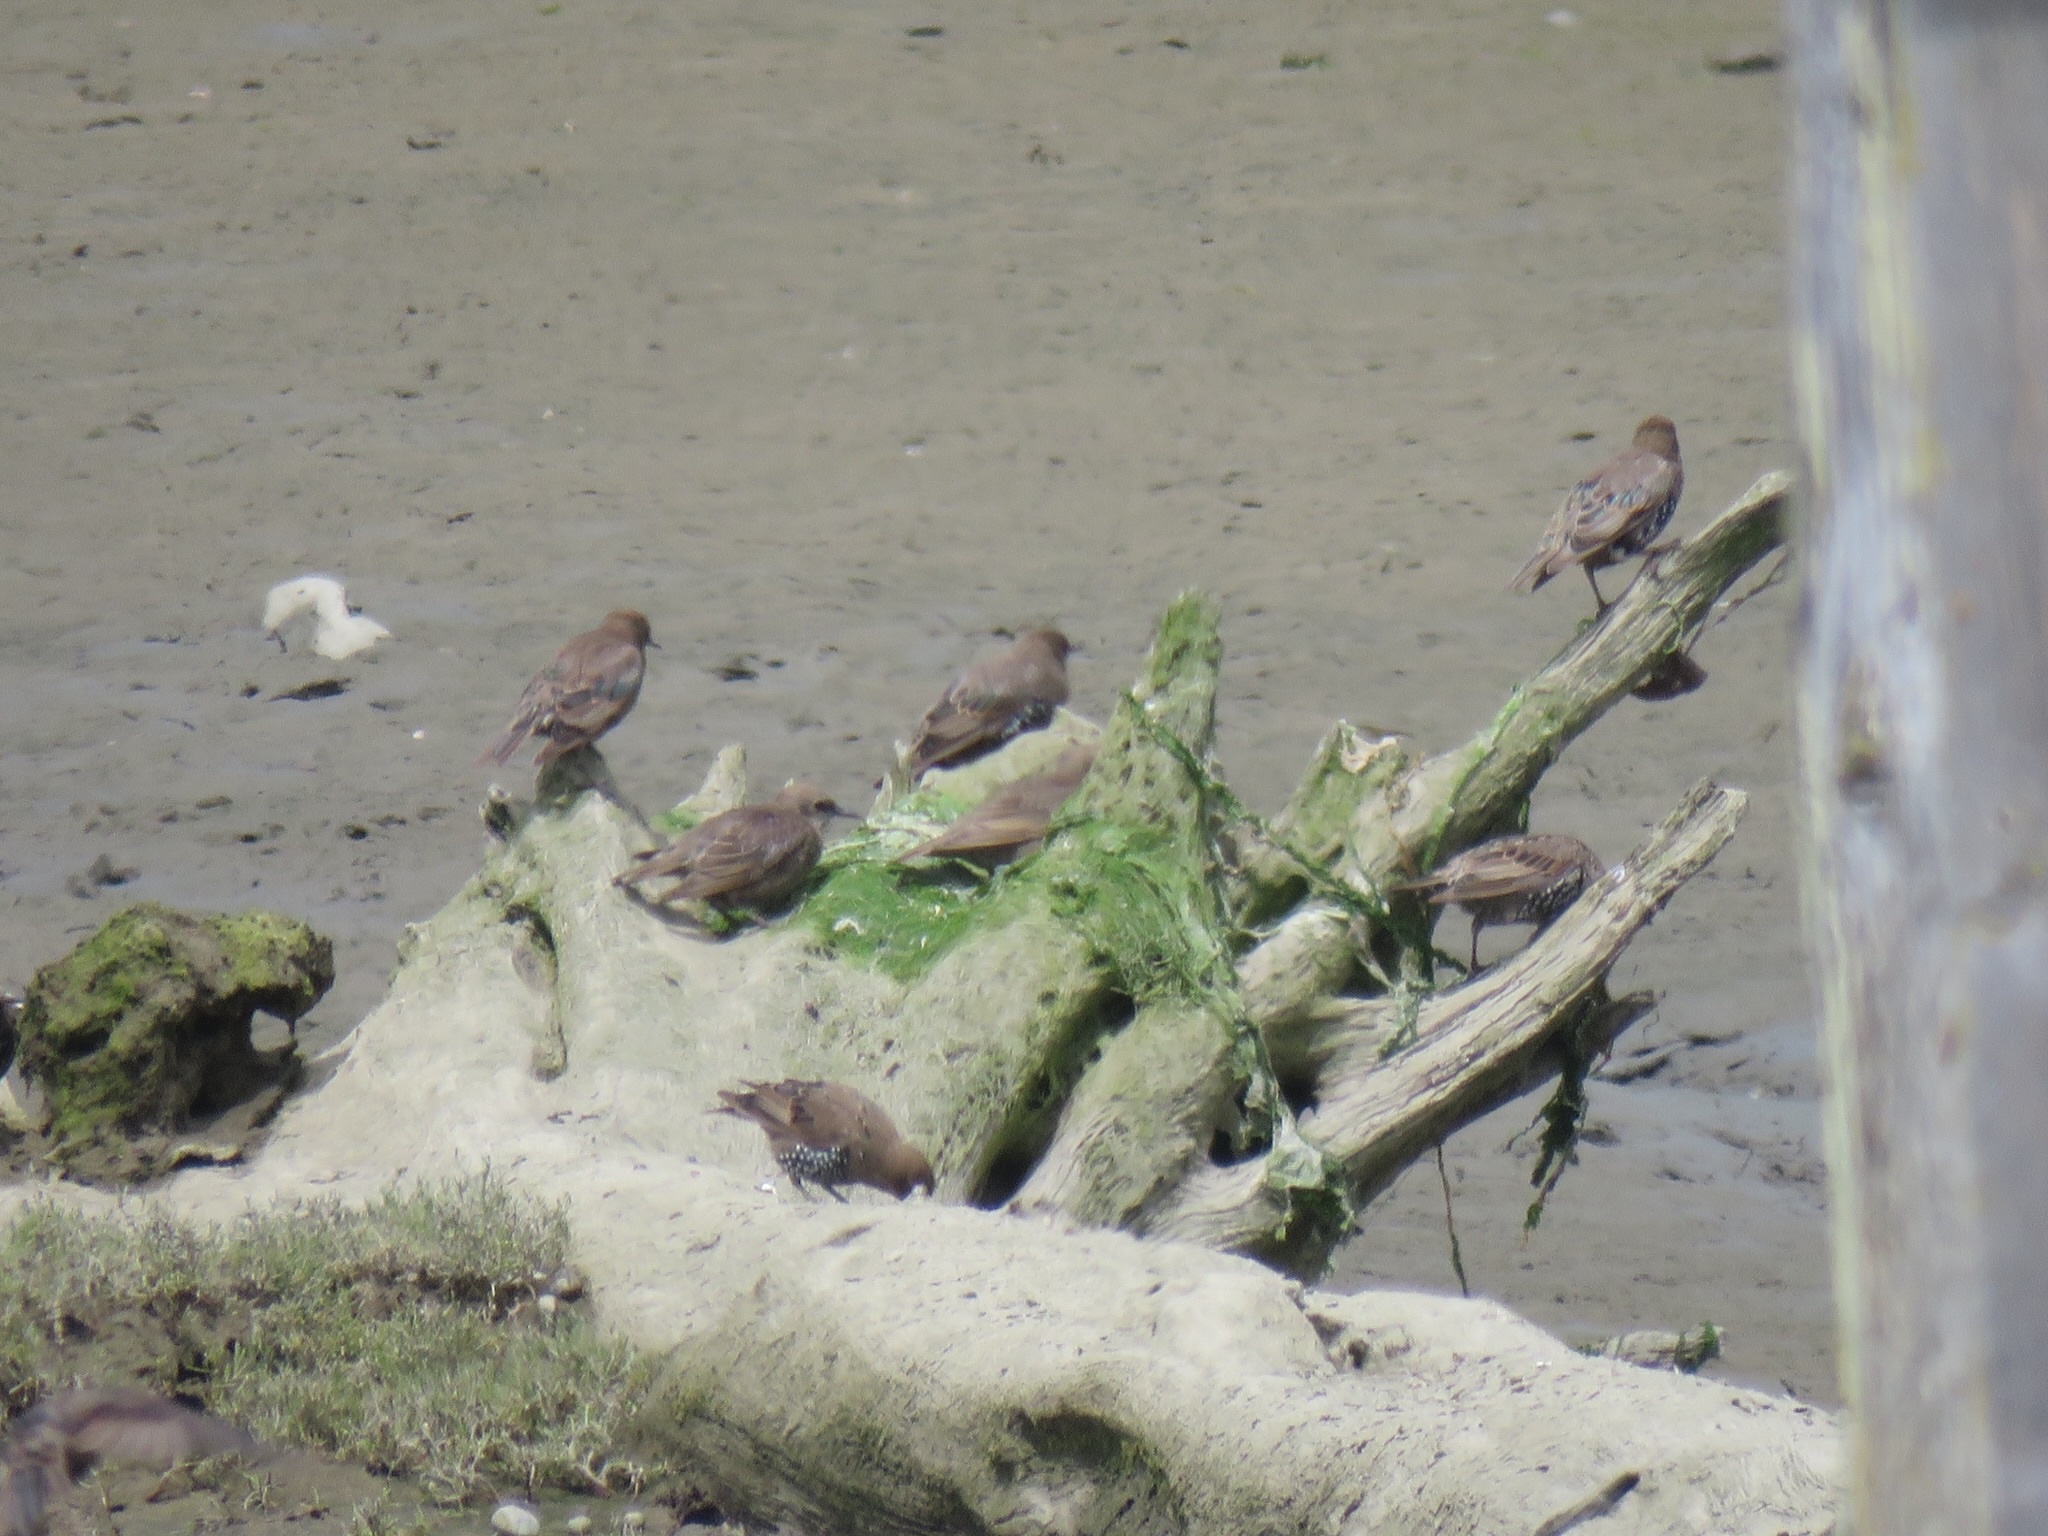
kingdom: Animalia
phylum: Chordata
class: Aves
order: Passeriformes
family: Sturnidae
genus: Sturnus
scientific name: Sturnus vulgaris
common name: Common starling
